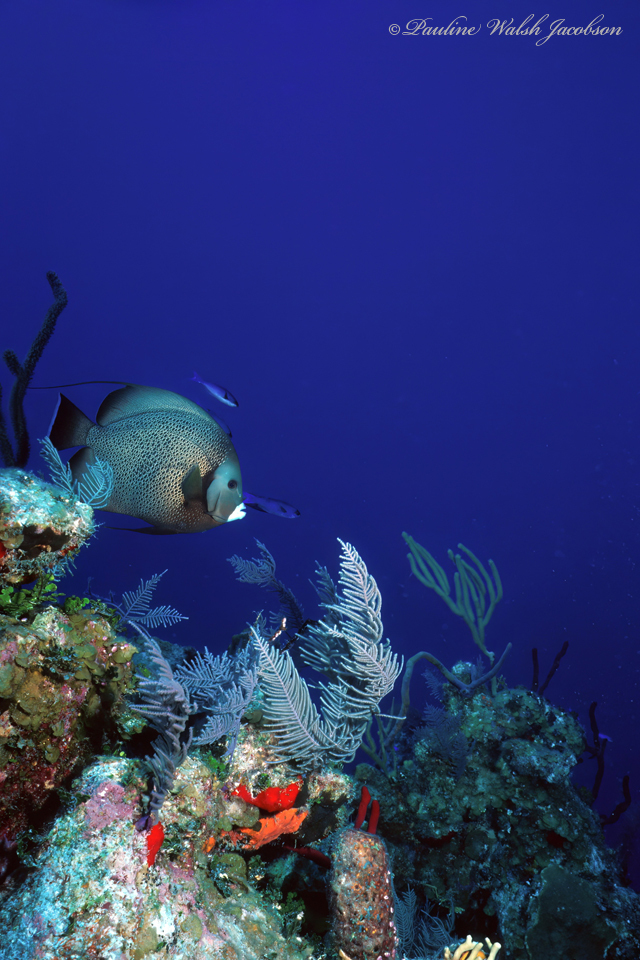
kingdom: Animalia
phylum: Chordata
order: Perciformes
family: Pomacanthidae
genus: Pomacanthus
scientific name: Pomacanthus arcuatus
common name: Gray angelfish
